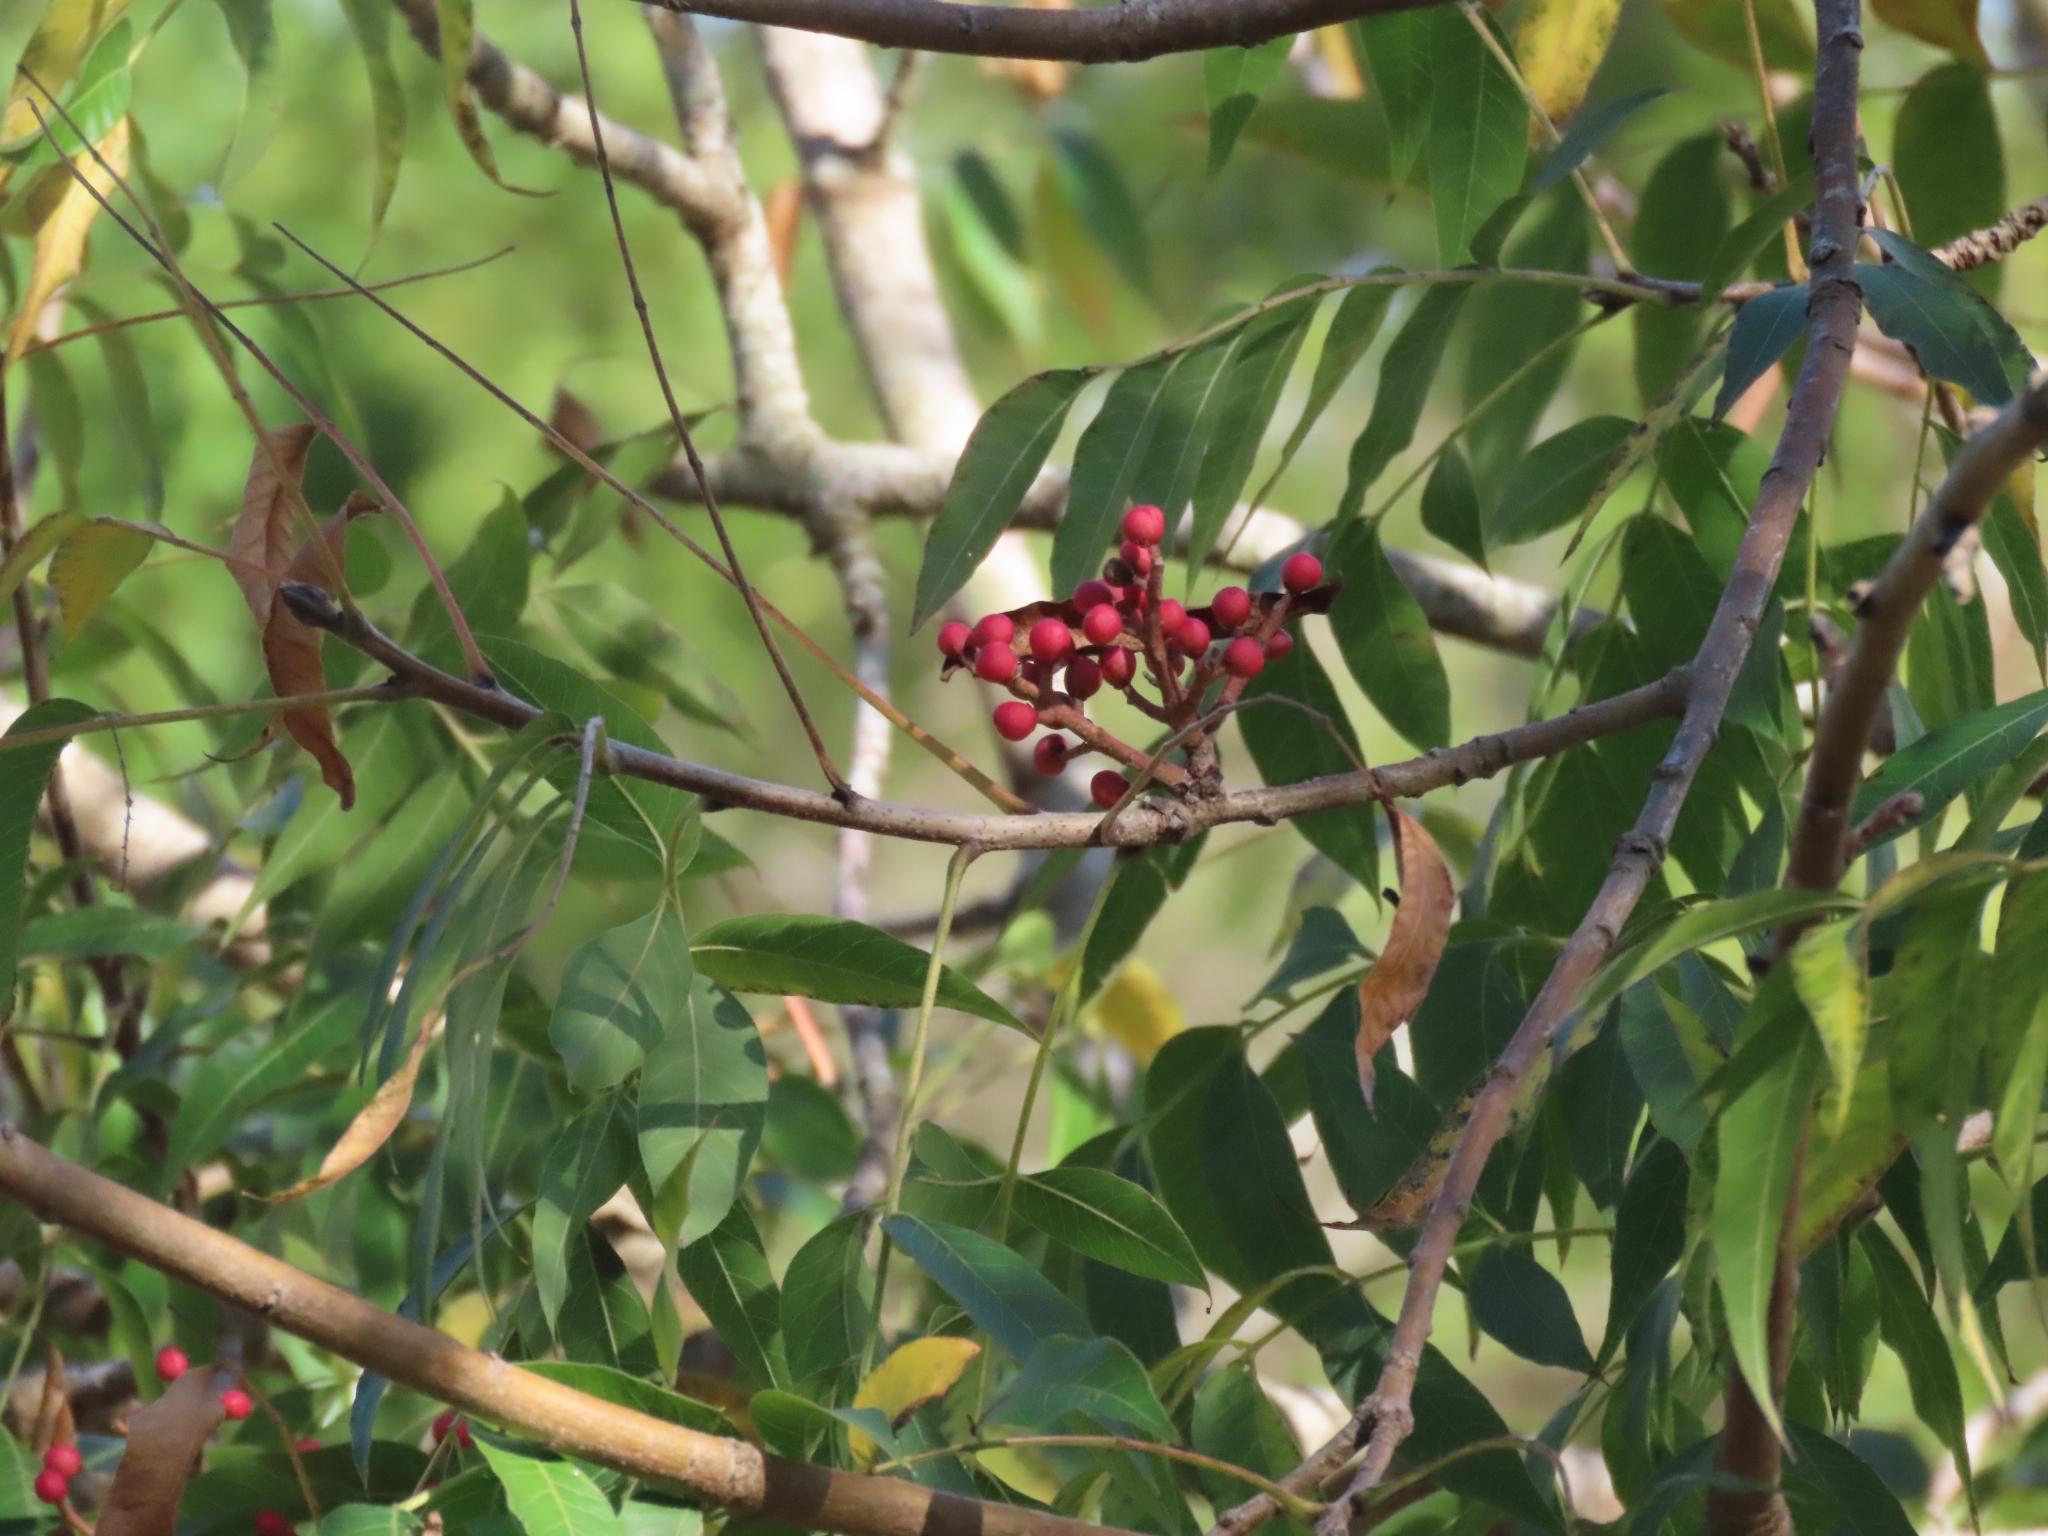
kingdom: Plantae
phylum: Tracheophyta
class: Magnoliopsida
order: Sapindales
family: Anacardiaceae
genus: Pistacia
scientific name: Pistacia chinensis
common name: Chinese pistache
